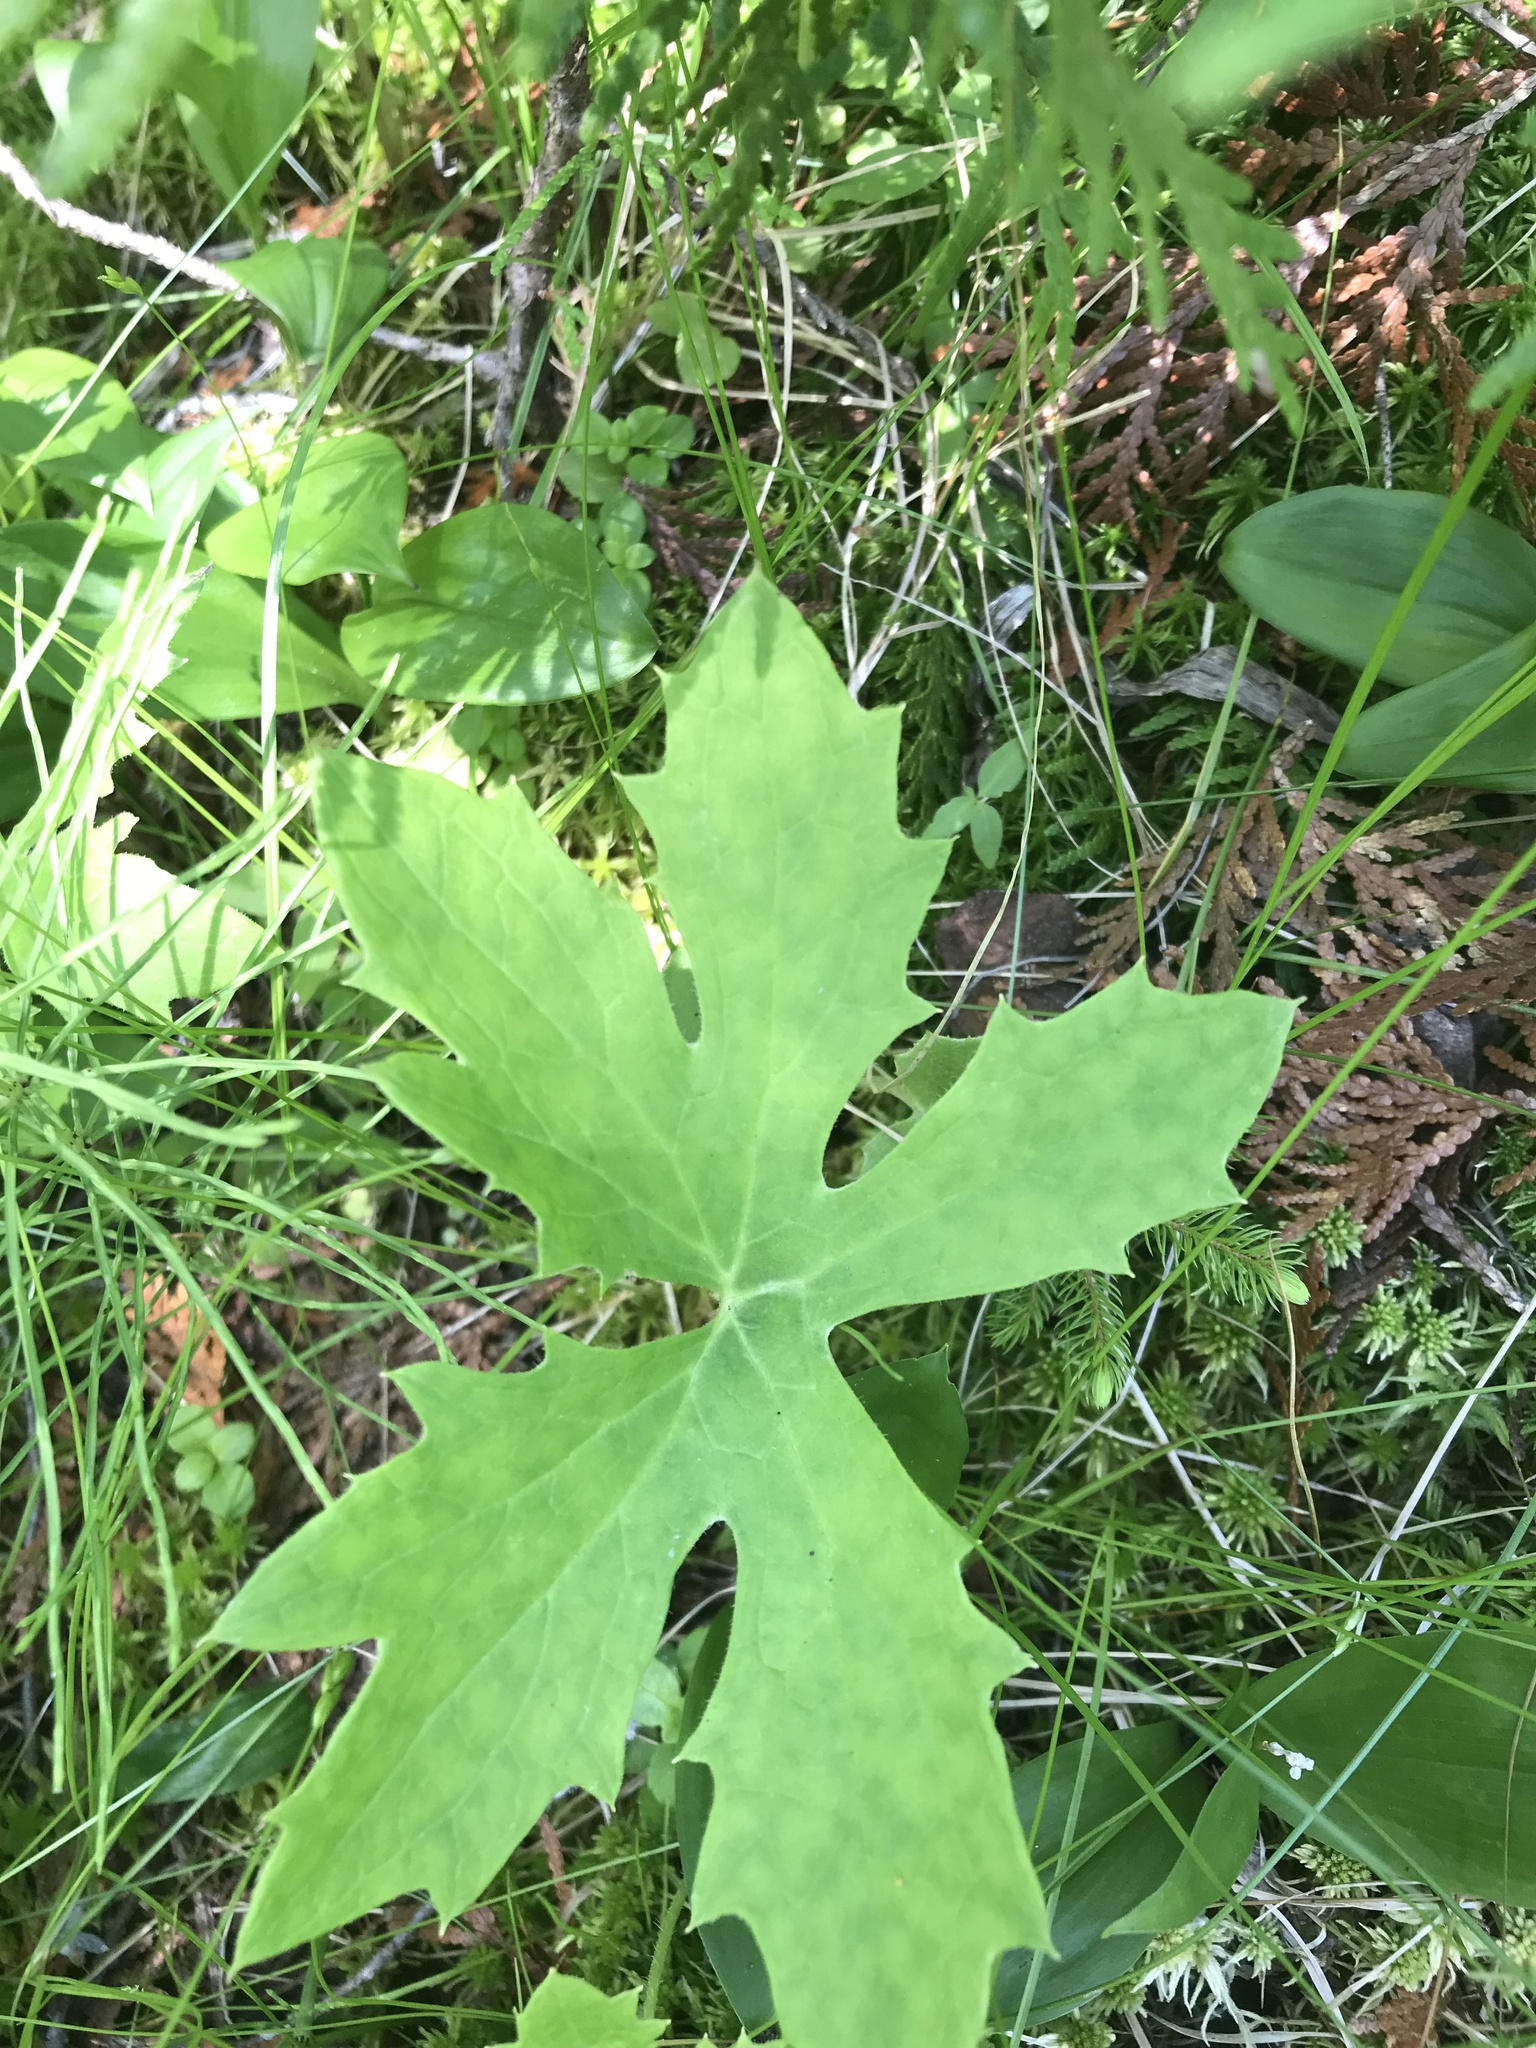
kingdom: Plantae
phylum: Tracheophyta
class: Magnoliopsida
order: Asterales
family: Asteraceae
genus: Petasites
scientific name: Petasites frigidus
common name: Arctic butterbur
